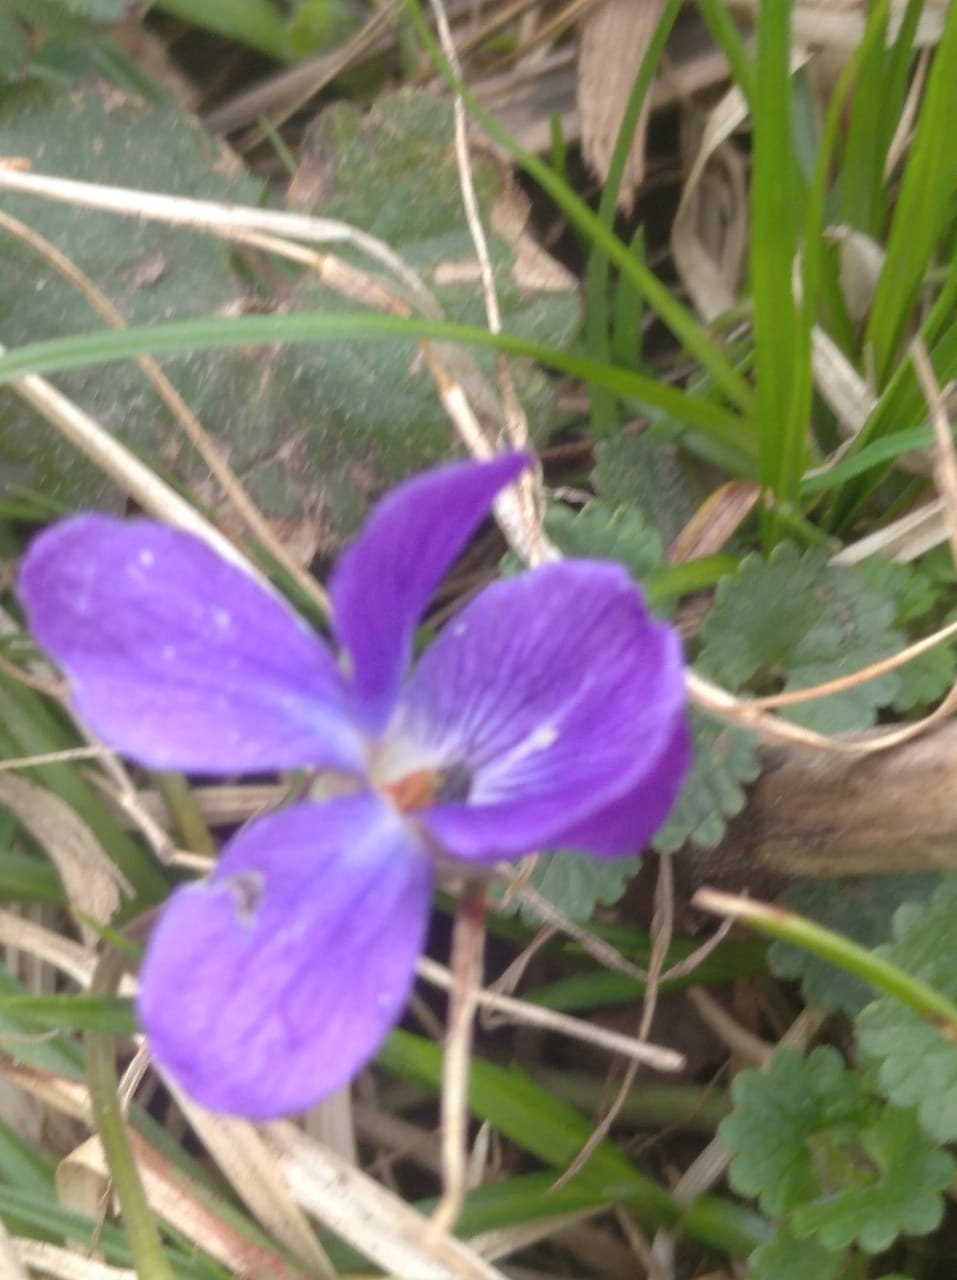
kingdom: Plantae
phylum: Tracheophyta
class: Magnoliopsida
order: Malpighiales
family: Violaceae
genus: Viola
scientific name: Viola odorata
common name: Sweet violet
